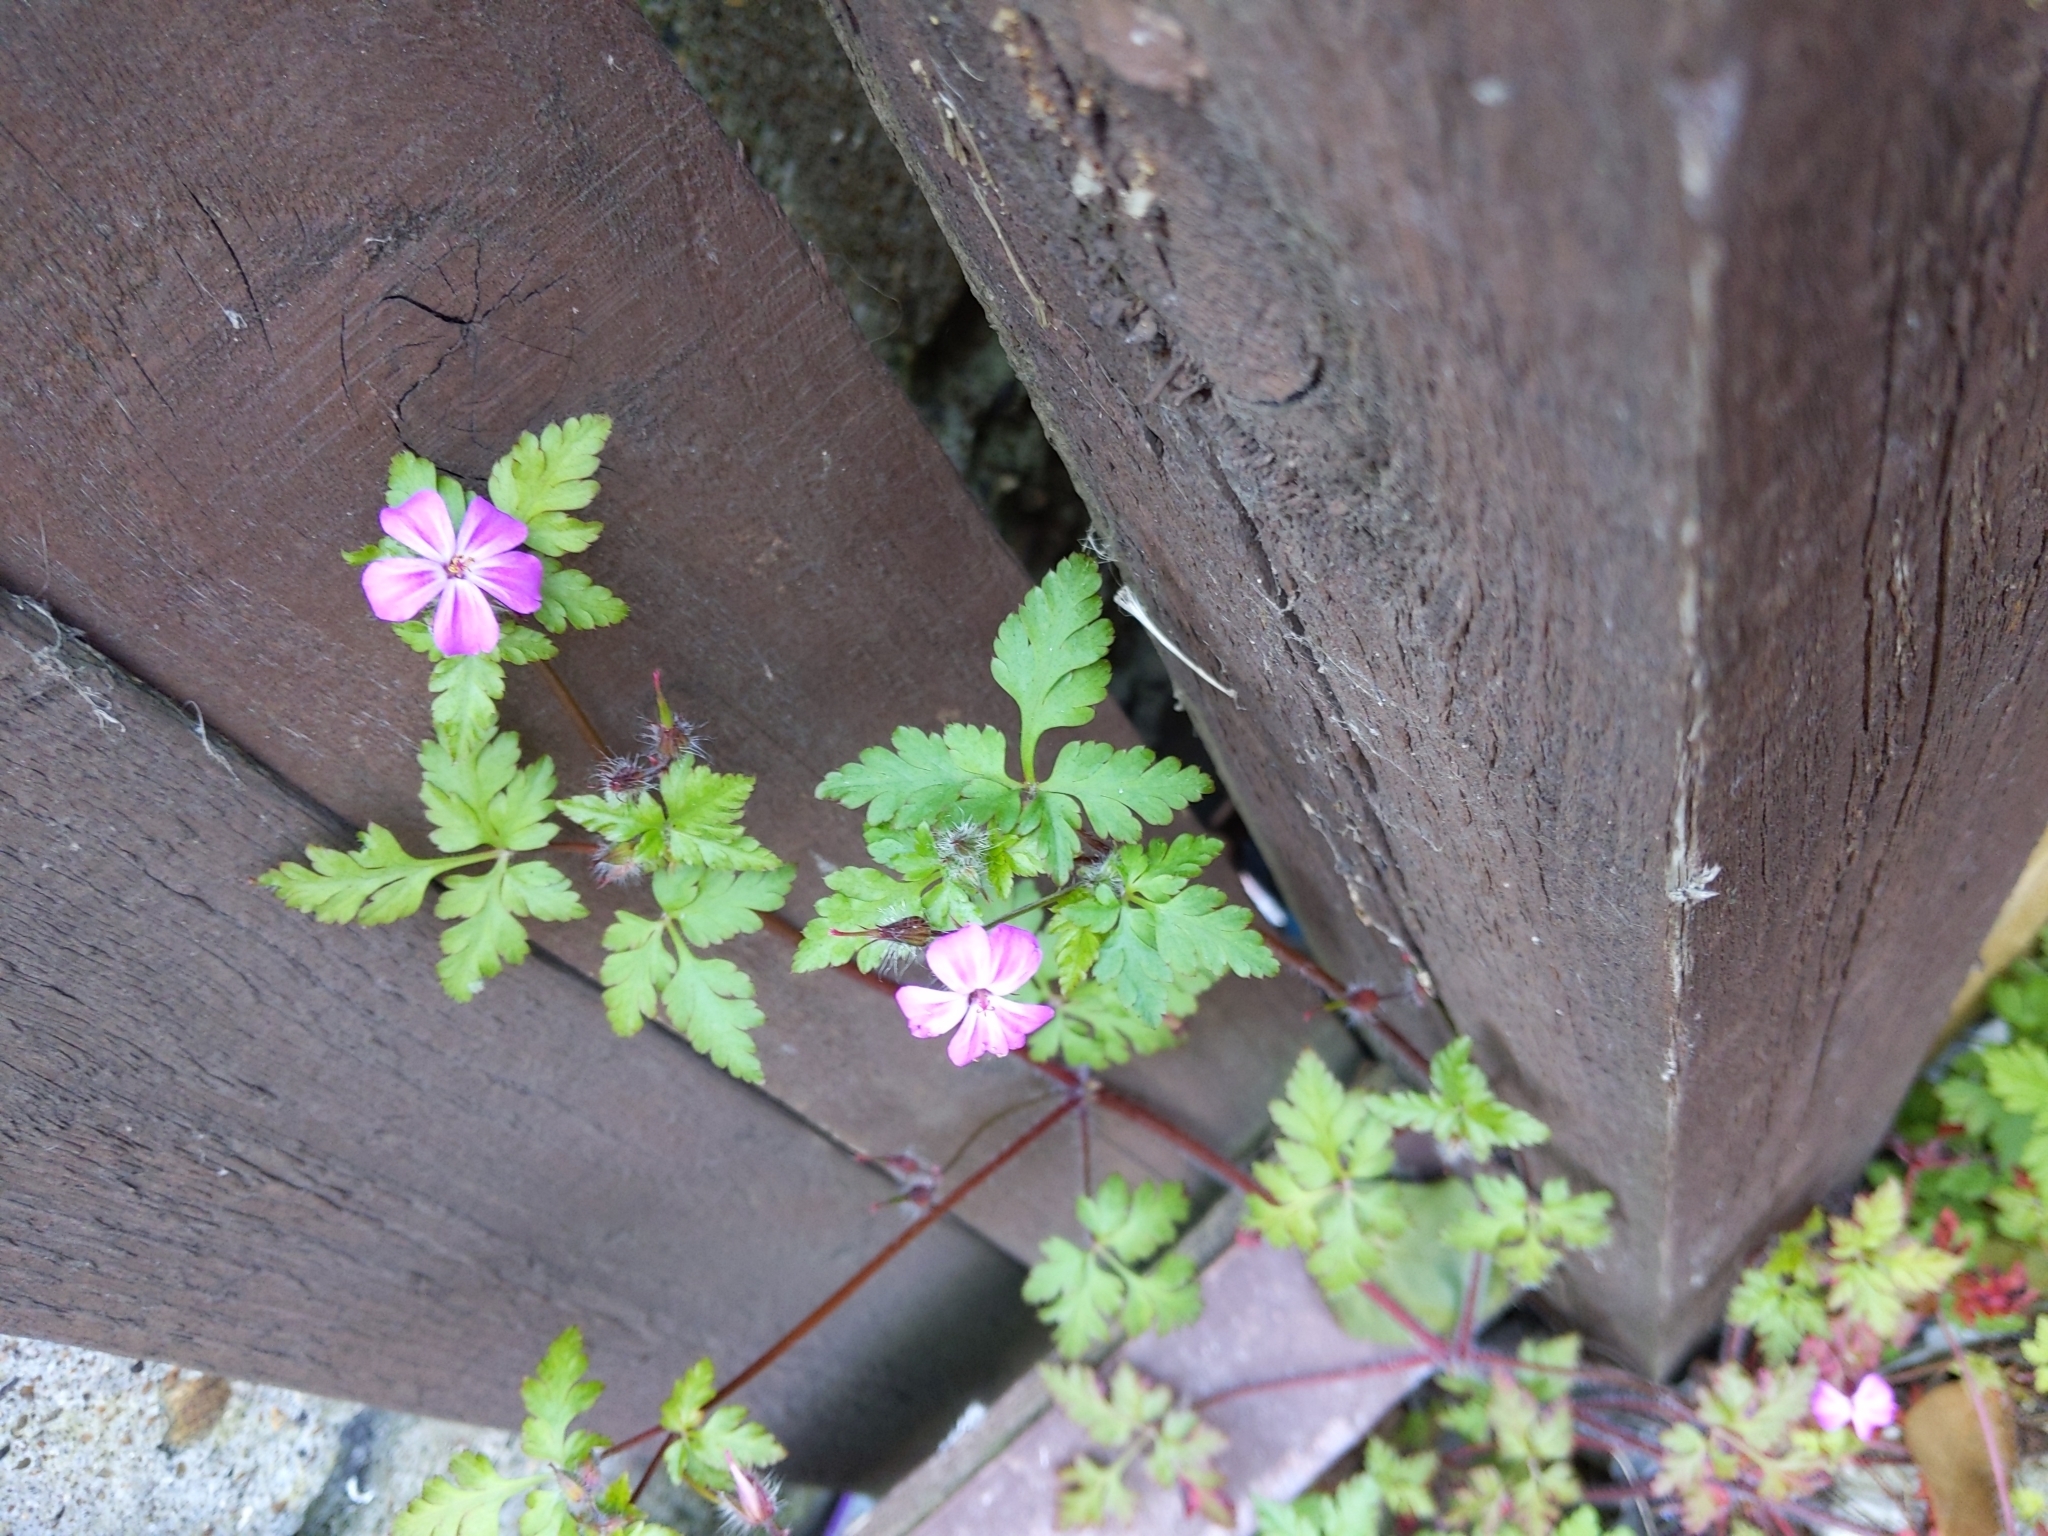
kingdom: Plantae
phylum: Tracheophyta
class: Magnoliopsida
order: Geraniales
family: Geraniaceae
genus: Geranium
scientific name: Geranium robertianum
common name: Herb-robert
